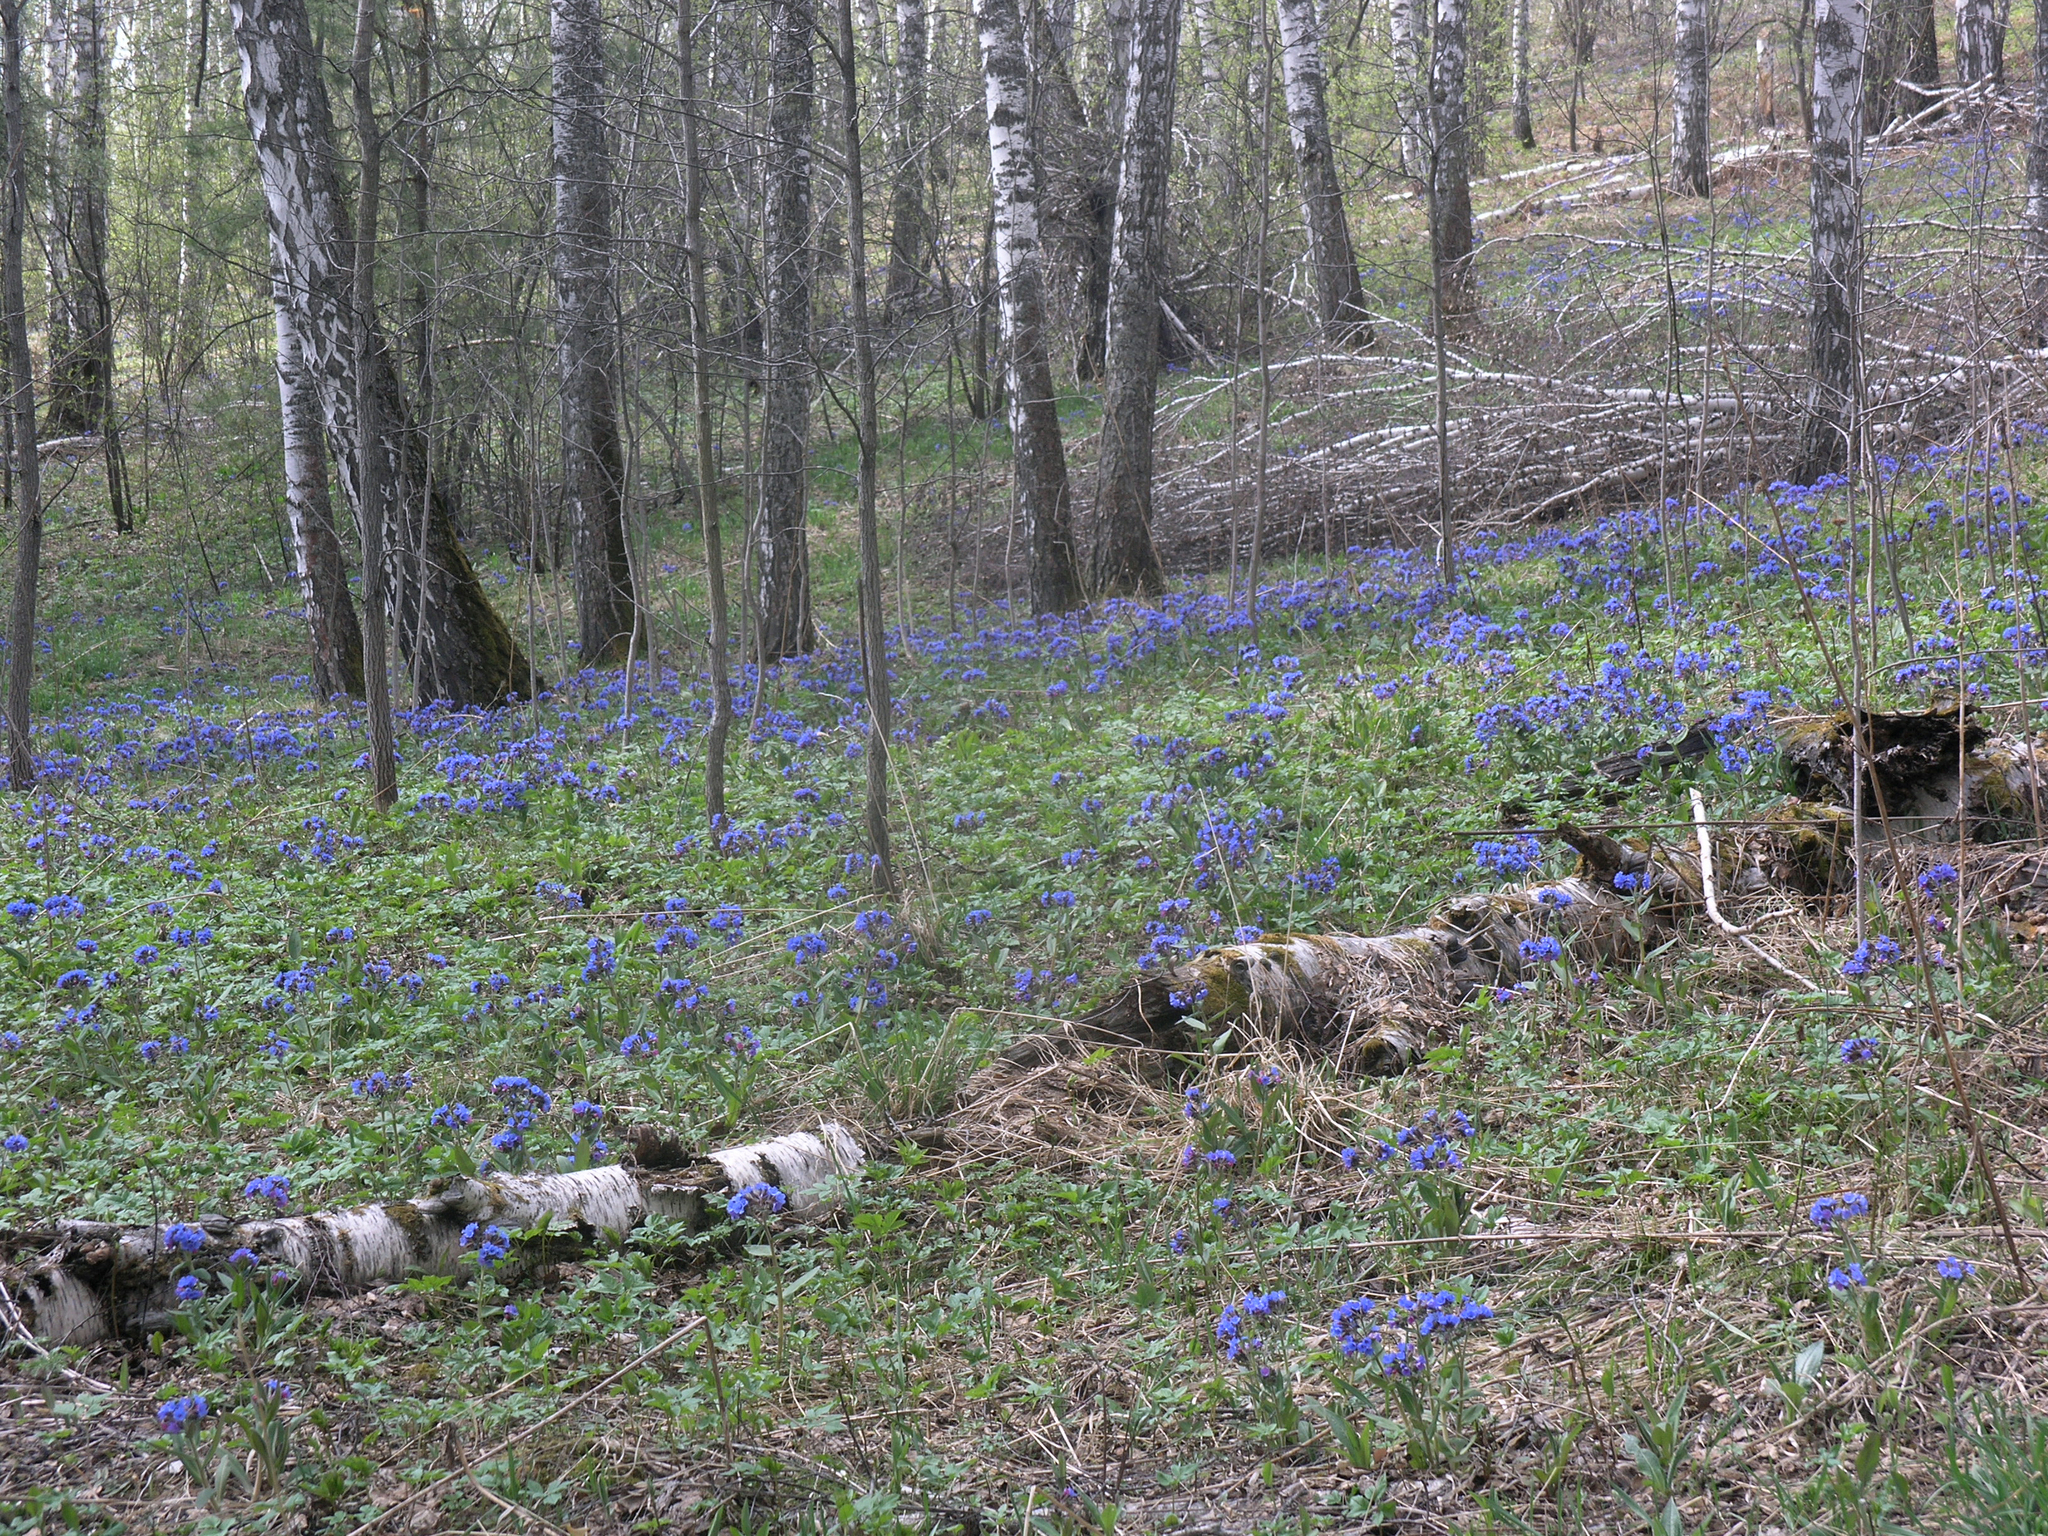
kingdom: Plantae
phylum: Tracheophyta
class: Magnoliopsida
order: Fagales
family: Betulaceae
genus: Betula
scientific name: Betula pendula
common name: Silver birch
